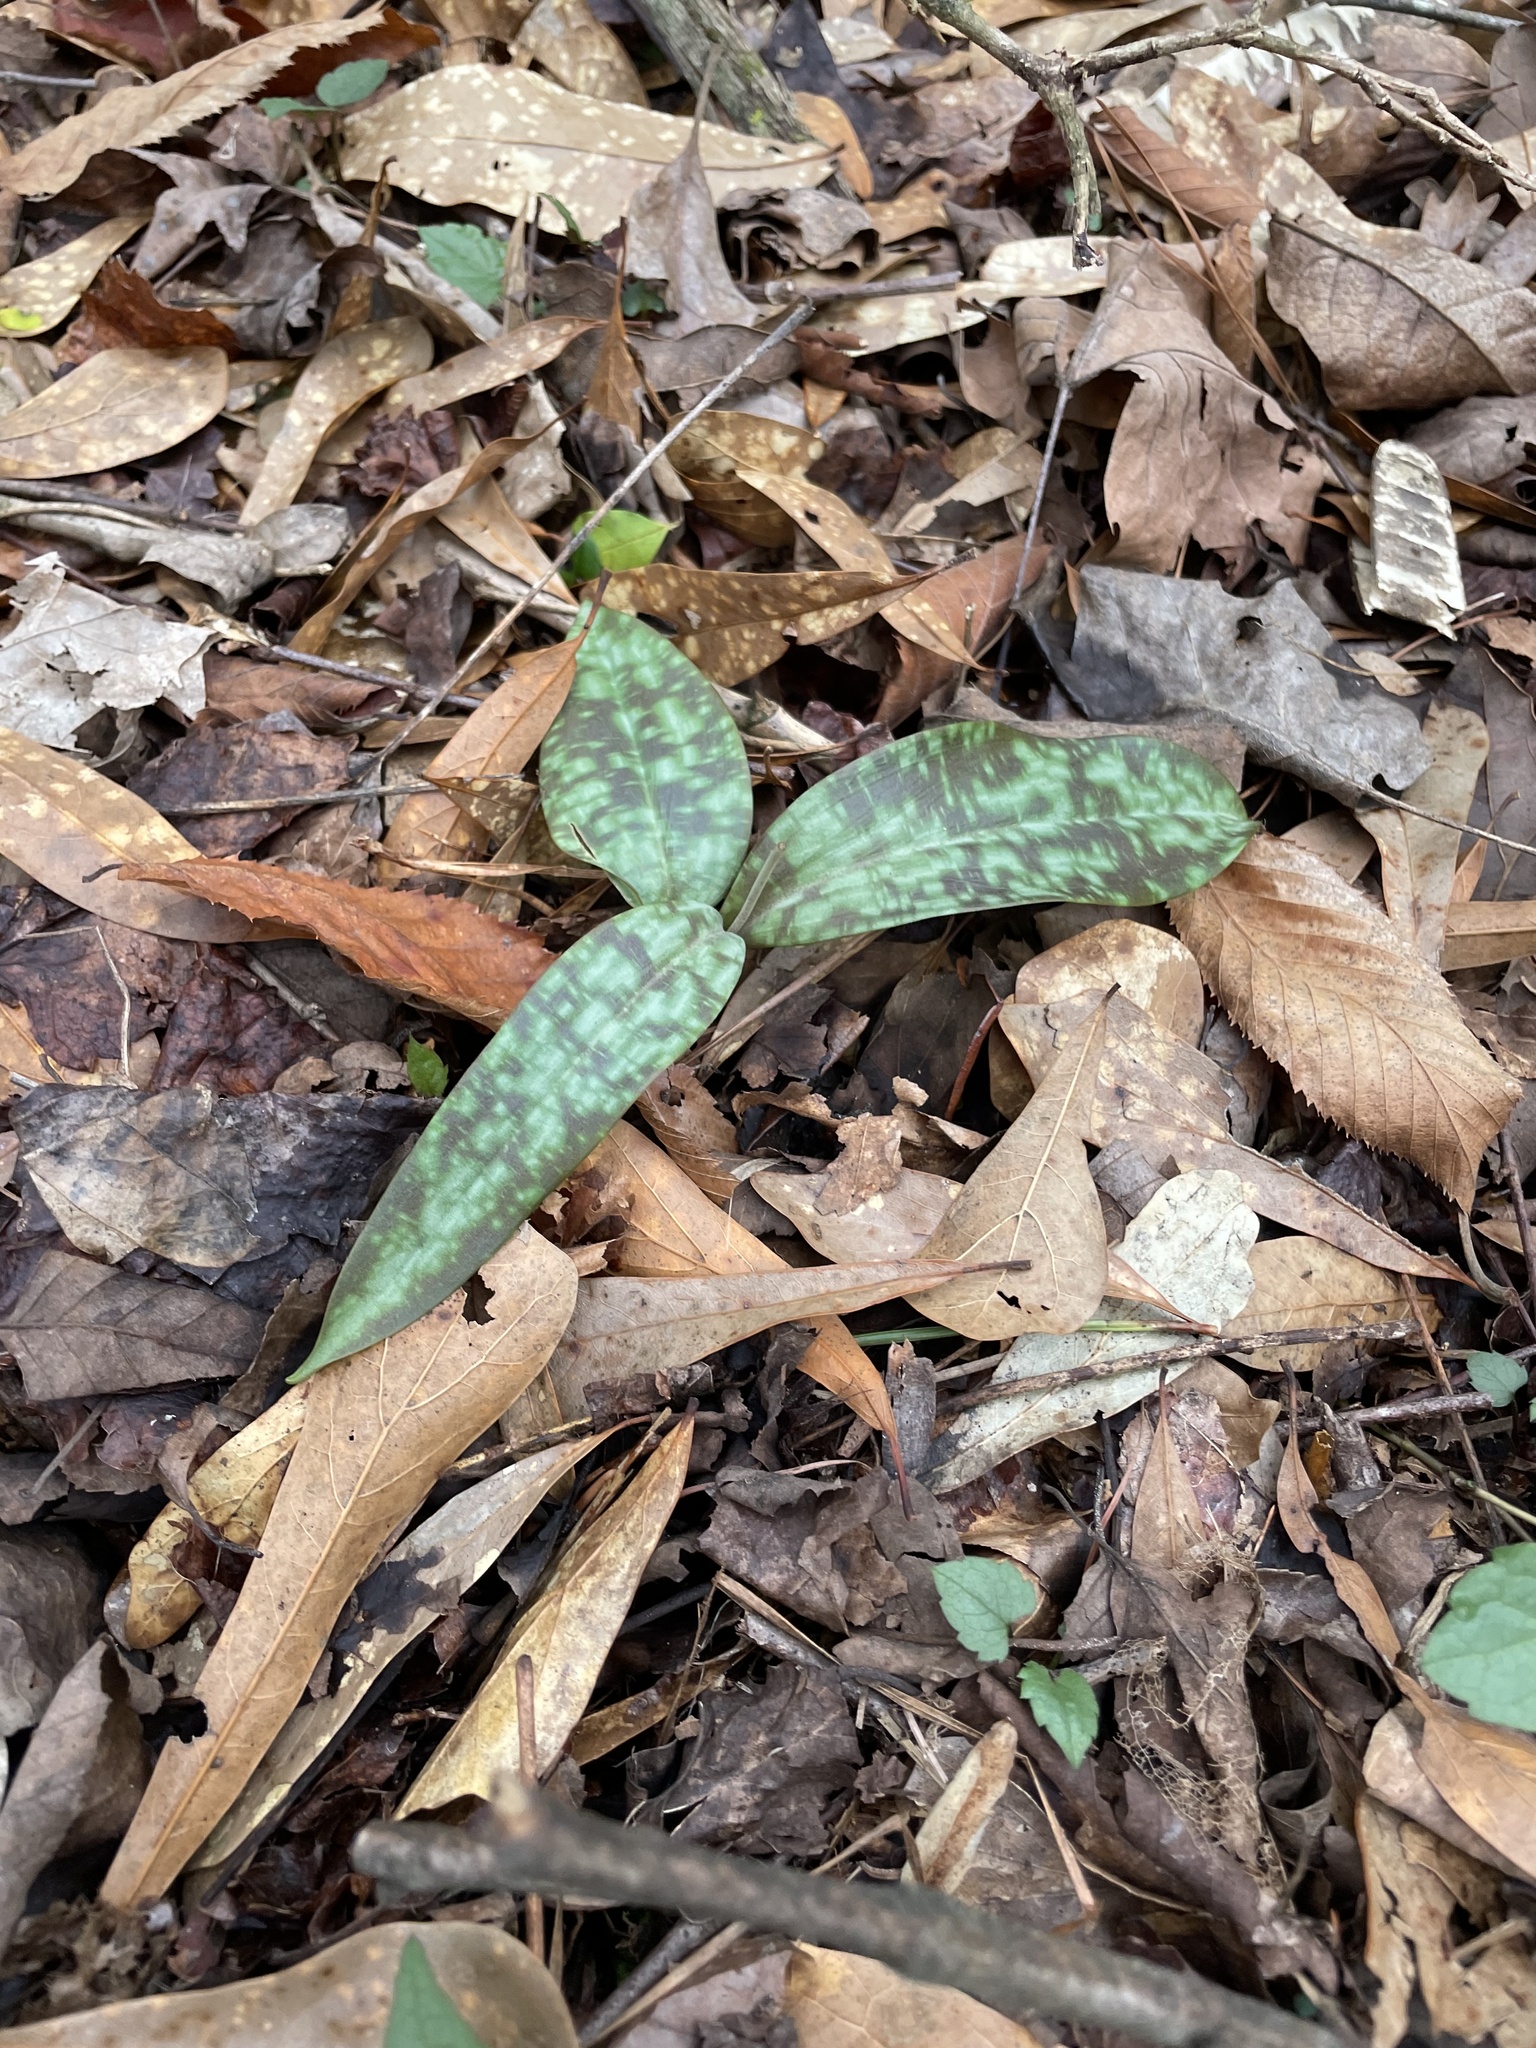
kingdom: Plantae
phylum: Tracheophyta
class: Liliopsida
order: Liliales
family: Liliaceae
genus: Erythronium
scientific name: Erythronium umbilicatum
